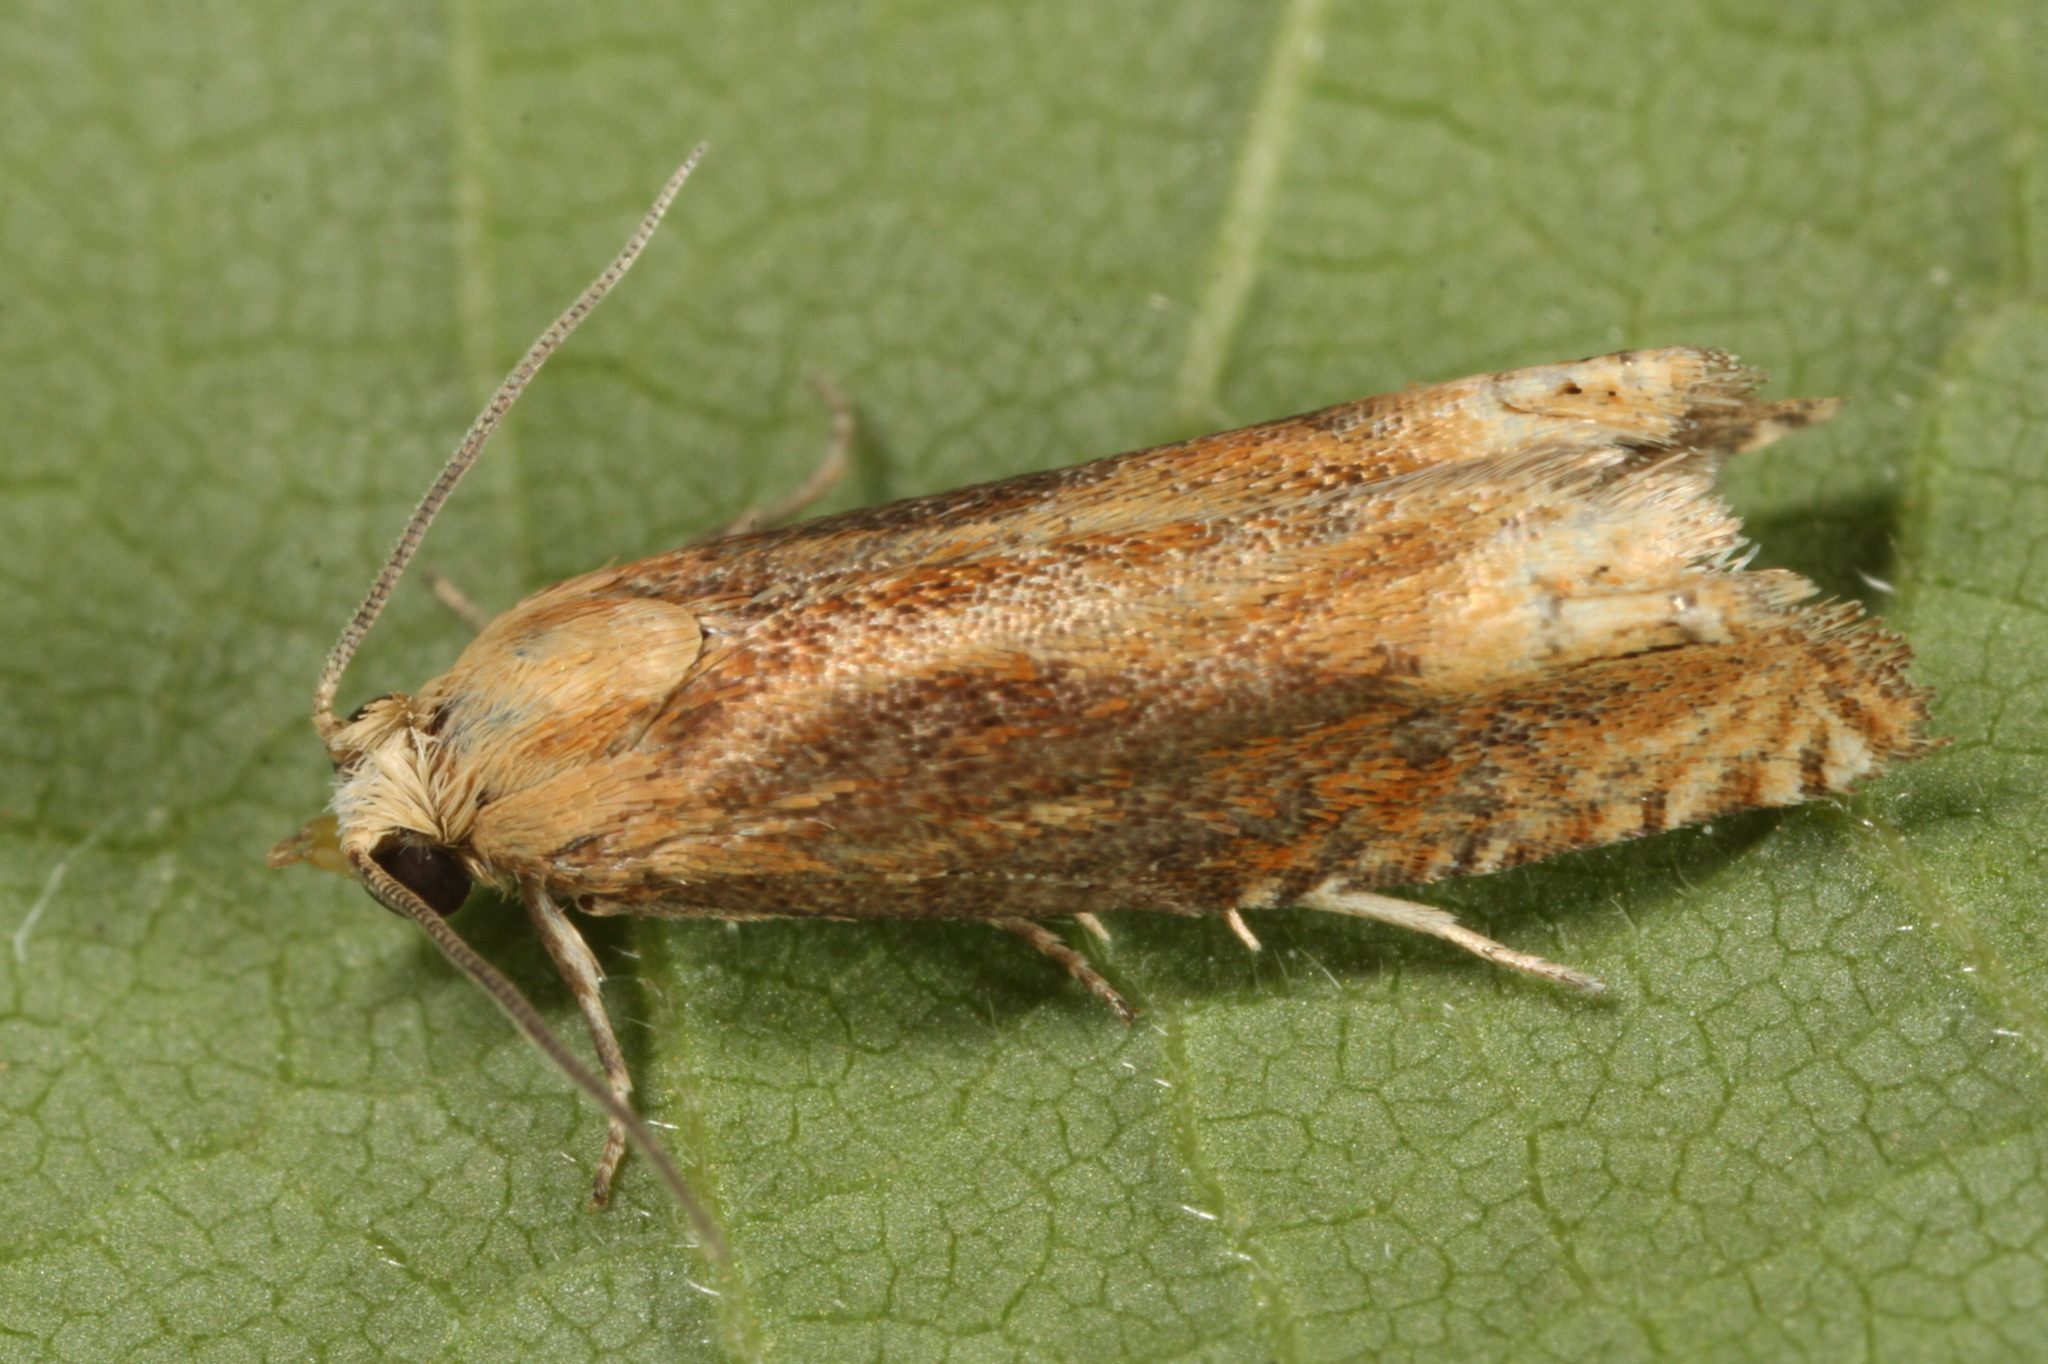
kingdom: Animalia
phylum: Arthropoda
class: Insecta
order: Lepidoptera
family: Tortricidae
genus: Eucosma
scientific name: Eucosma balatonana
